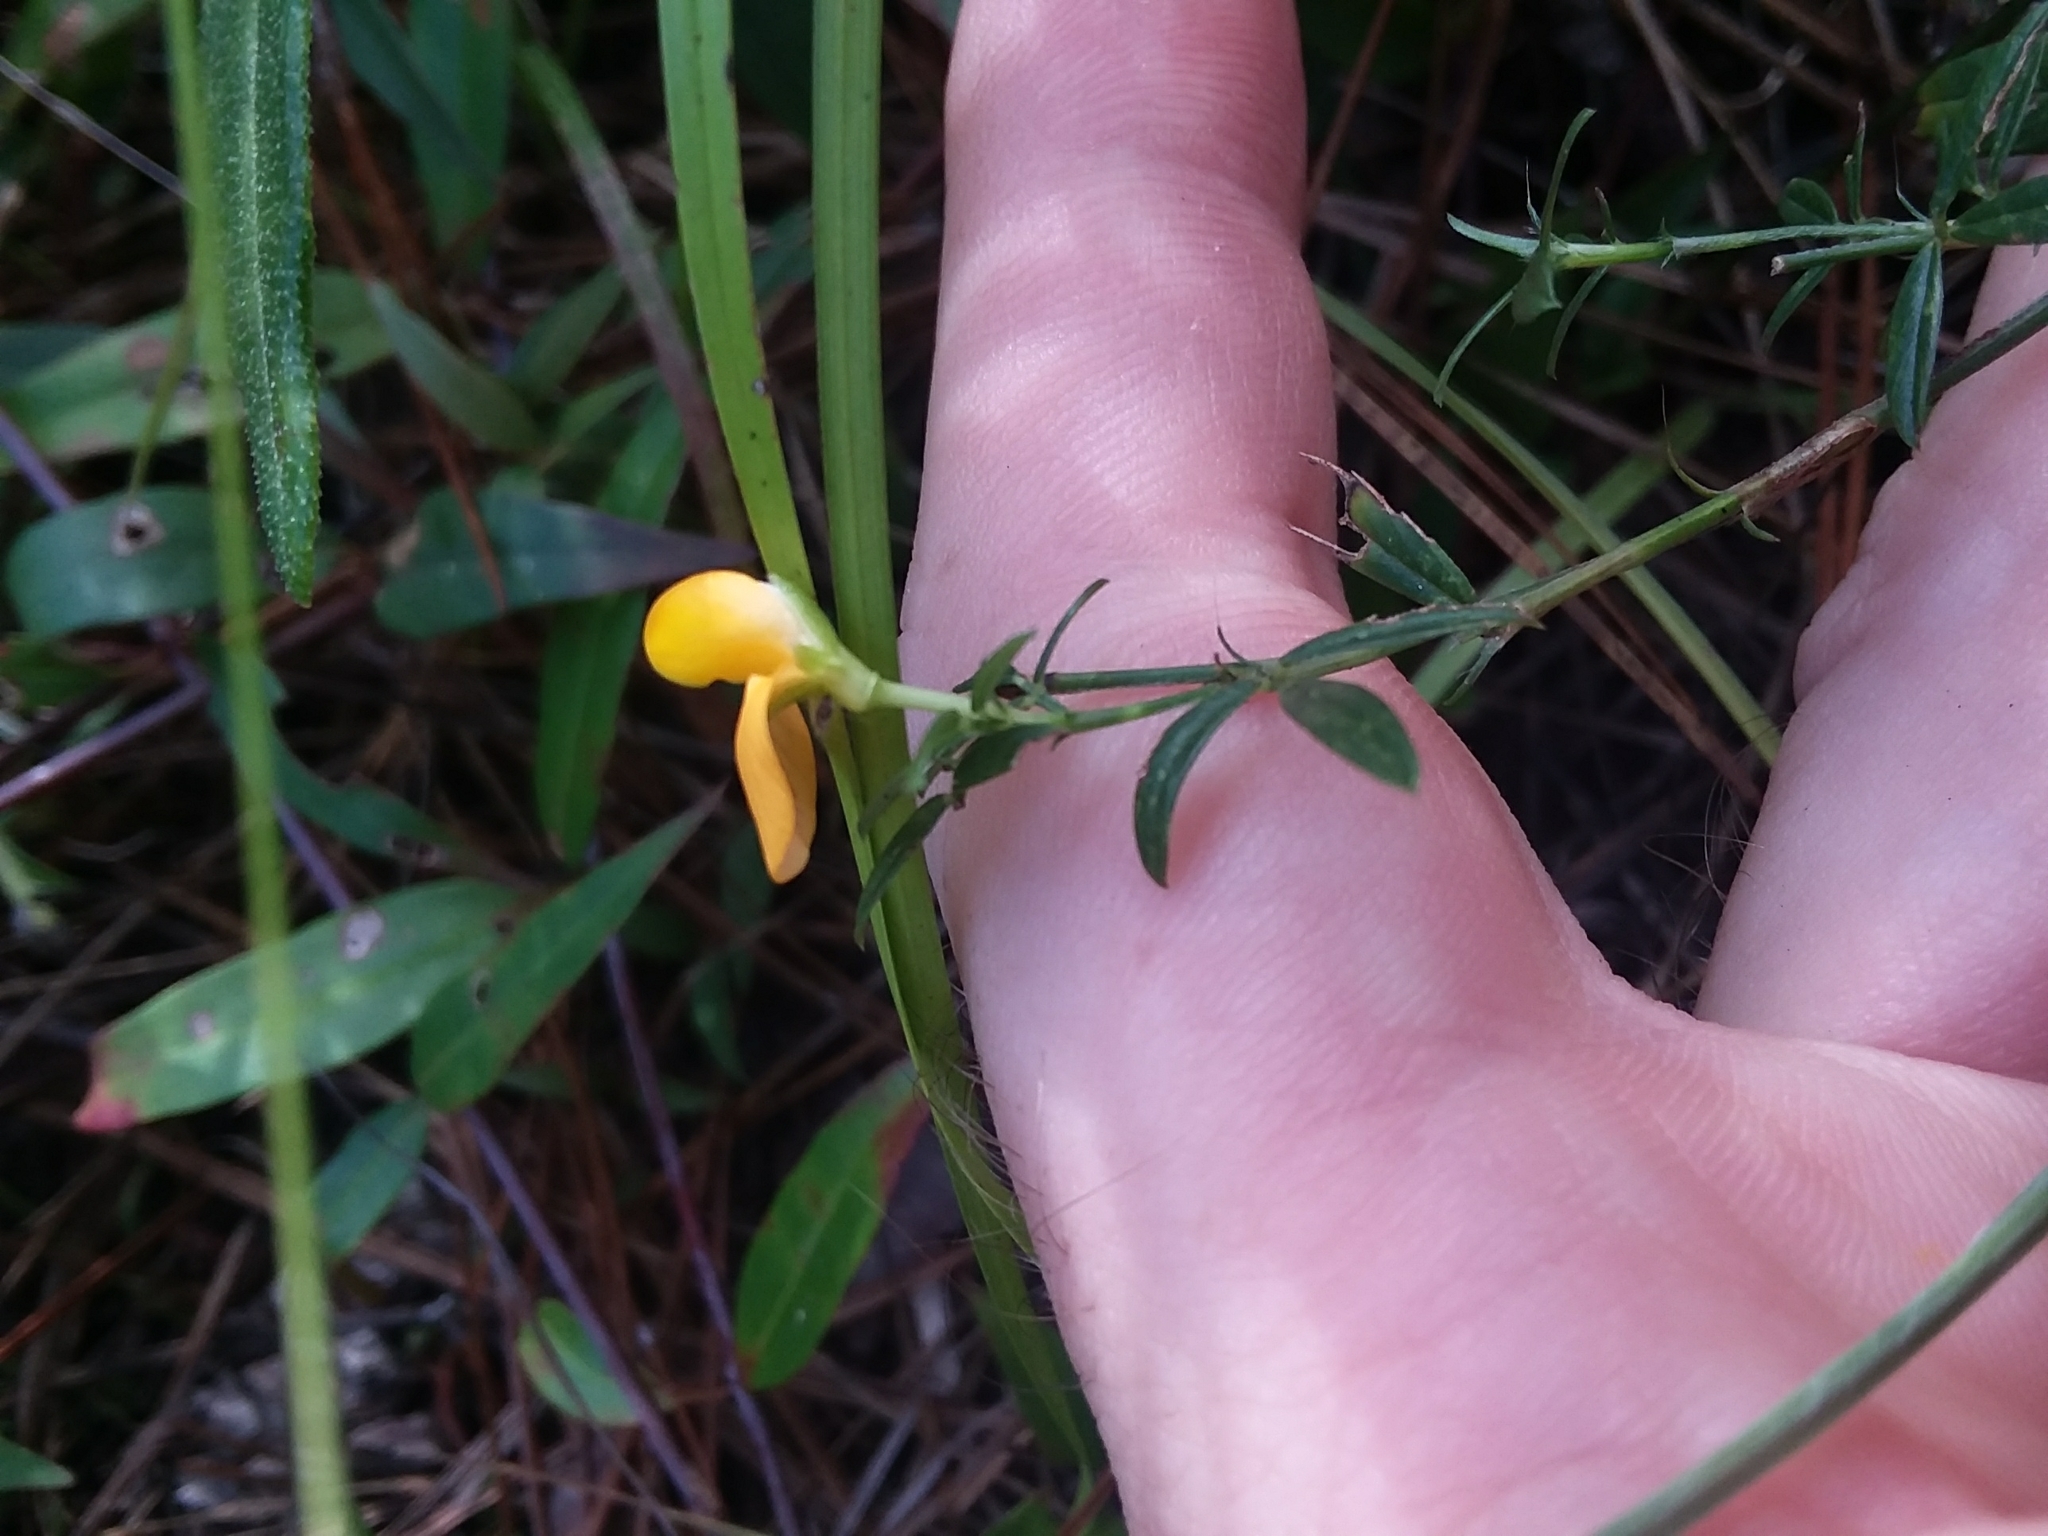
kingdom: Plantae
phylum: Tracheophyta
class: Magnoliopsida
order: Fabales
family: Fabaceae
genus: Stylosanthes
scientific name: Stylosanthes biflora
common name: Two-flower pencil-flower
